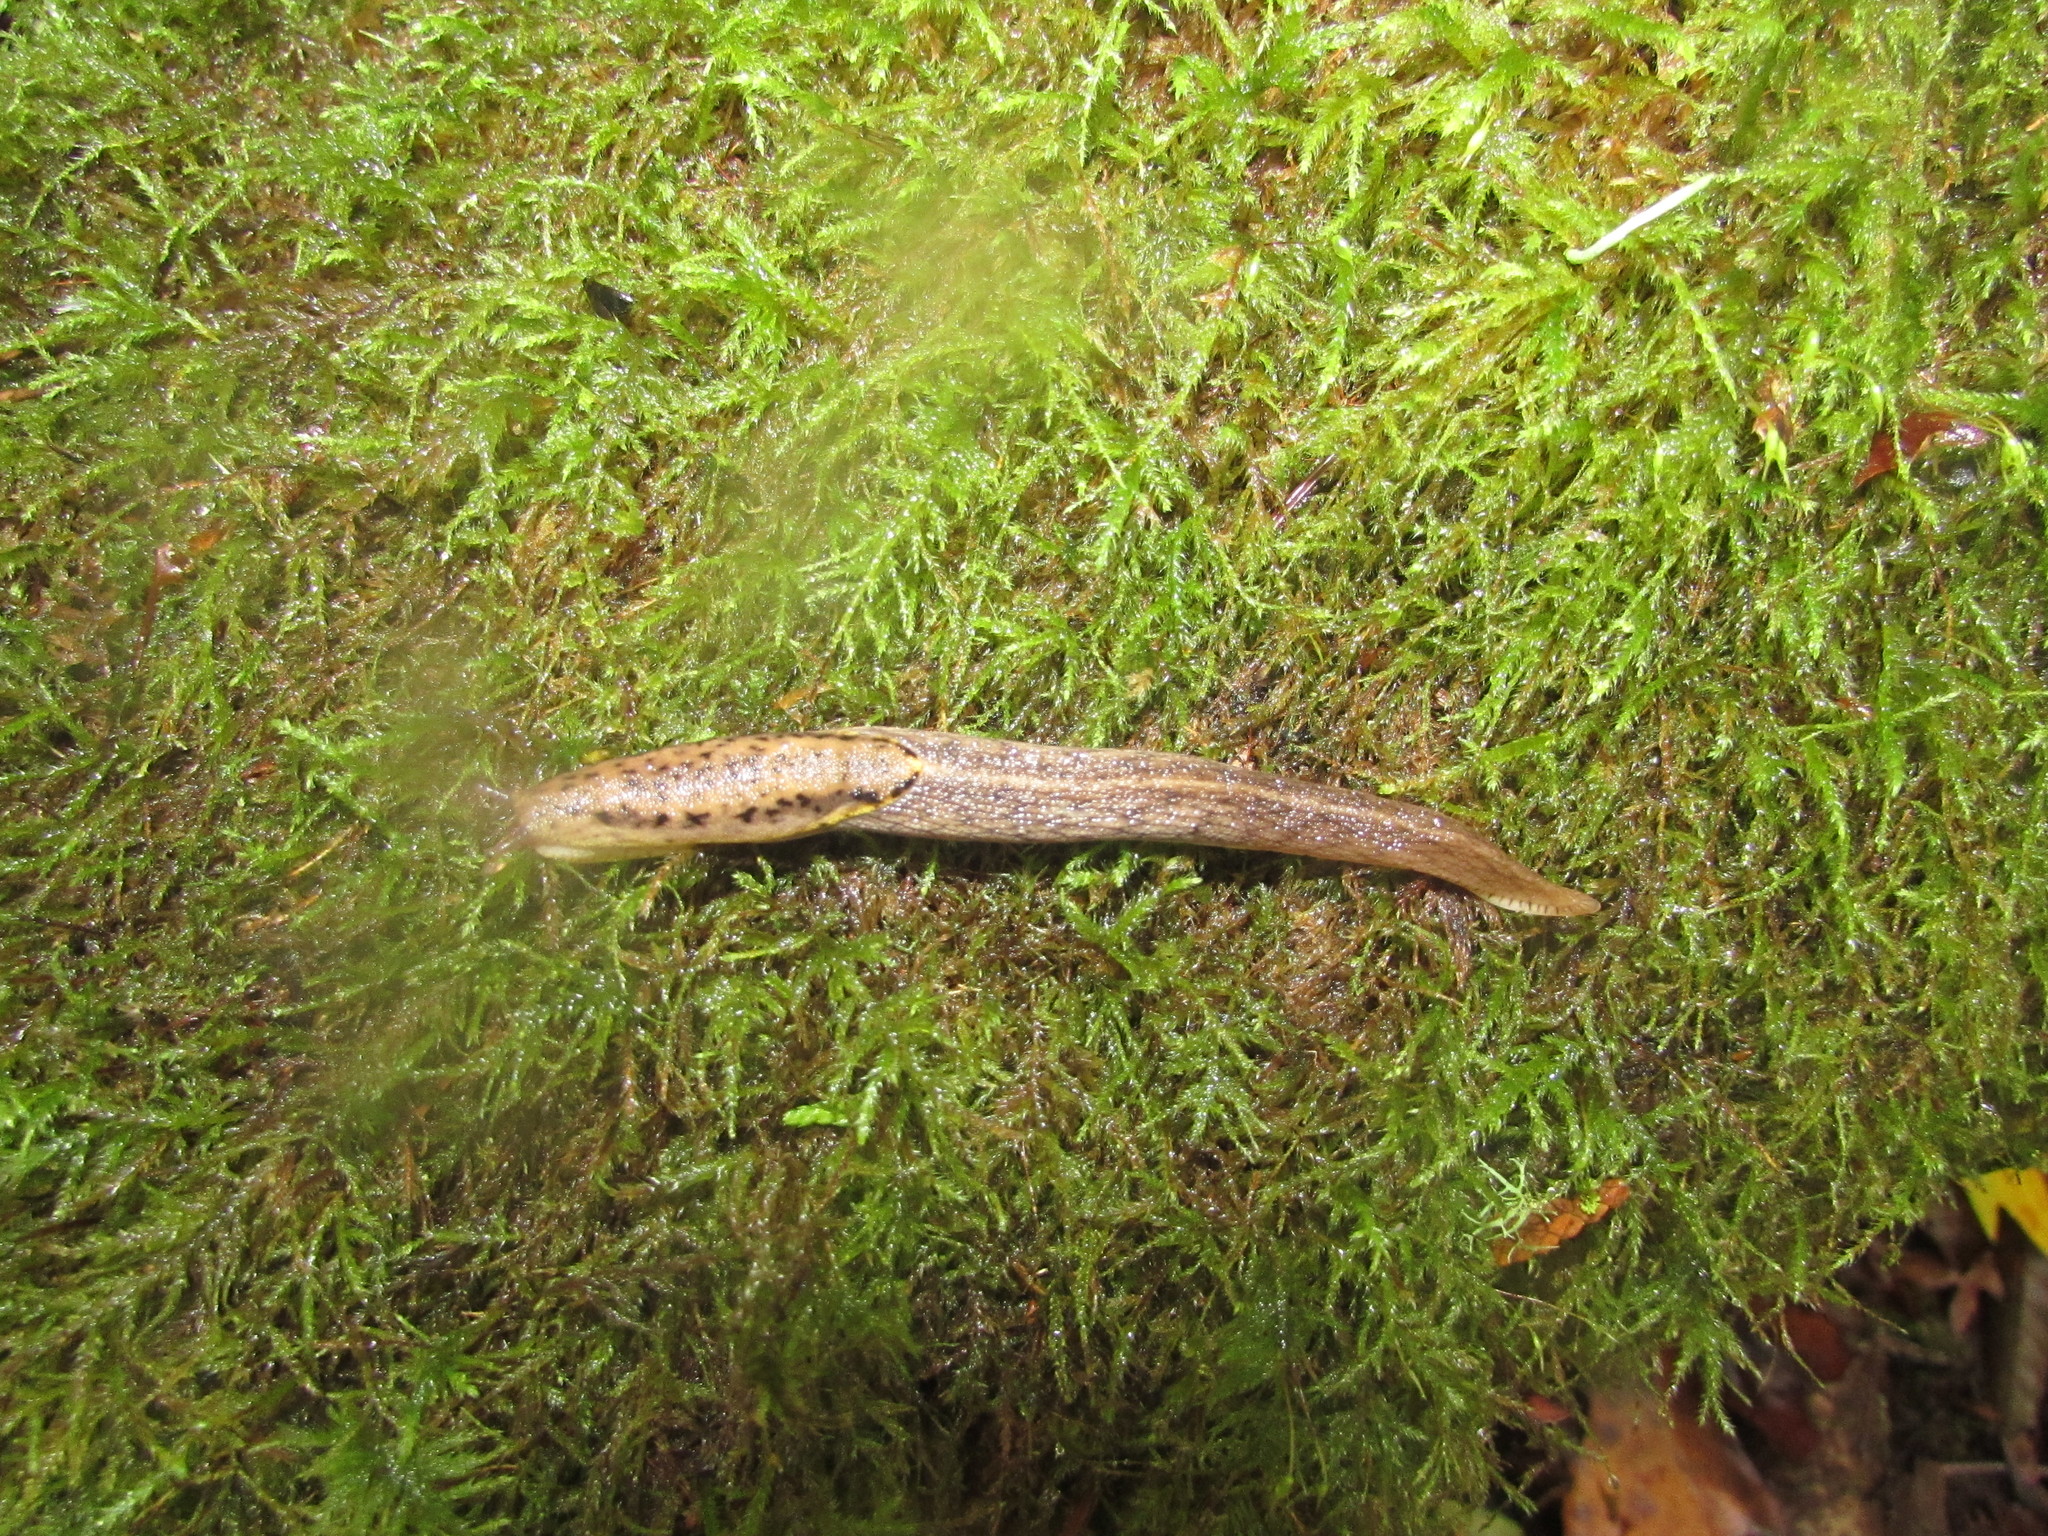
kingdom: Animalia
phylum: Mollusca
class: Gastropoda
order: Stylommatophora
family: Ariolimacidae
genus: Prophysaon
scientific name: Prophysaon foliolatum
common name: Yellow-bordered taildropper
